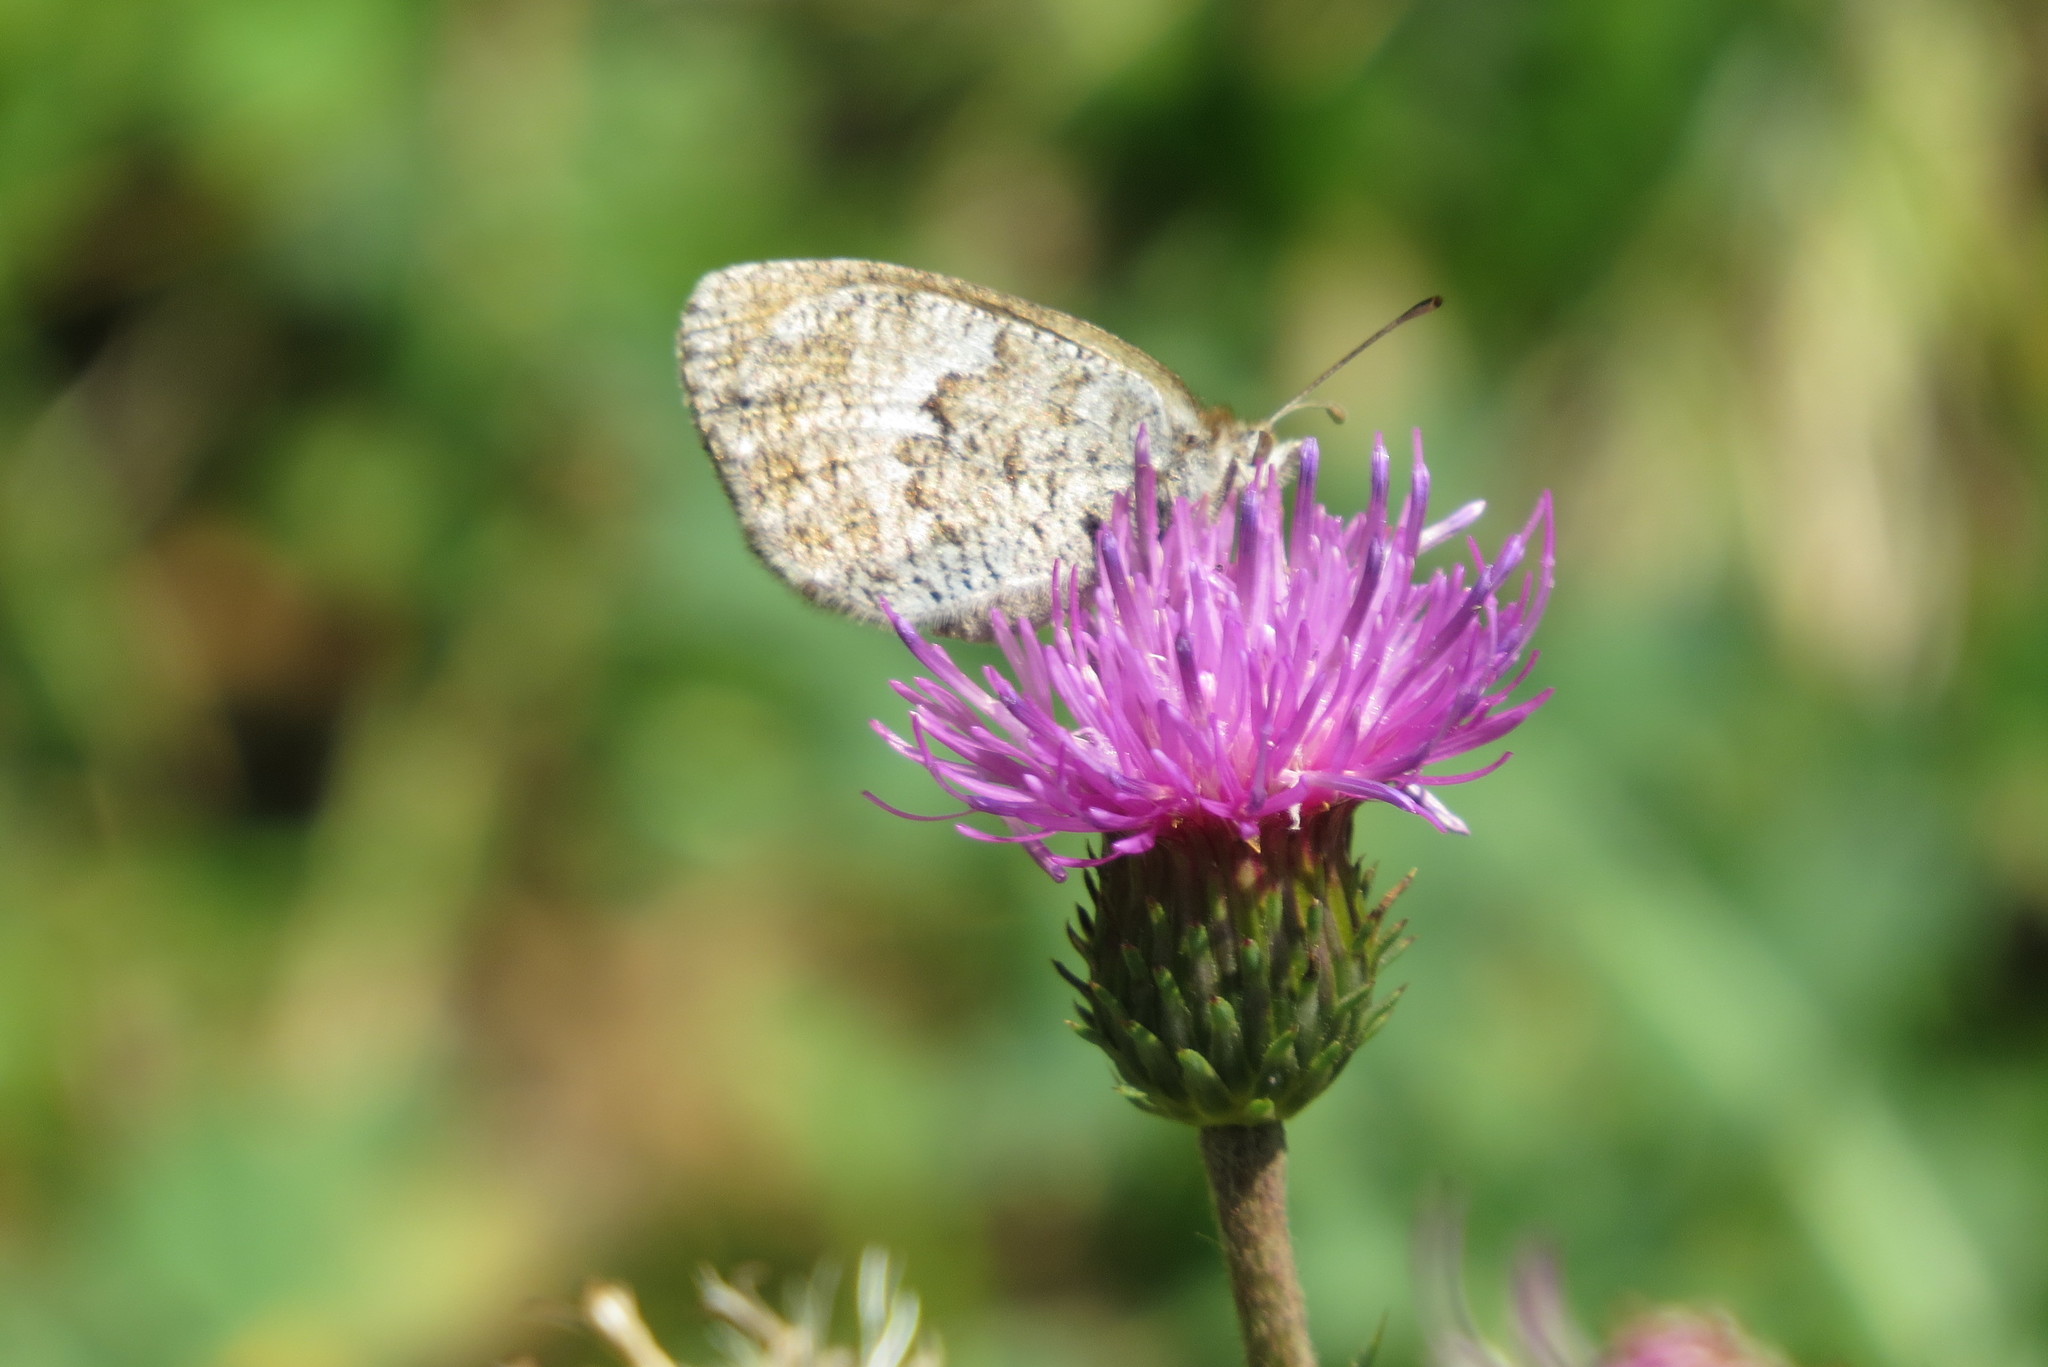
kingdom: Animalia
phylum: Arthropoda
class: Insecta
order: Lepidoptera
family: Nymphalidae
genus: Erebia
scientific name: Erebia cassioides
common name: Common brassy ringlet
